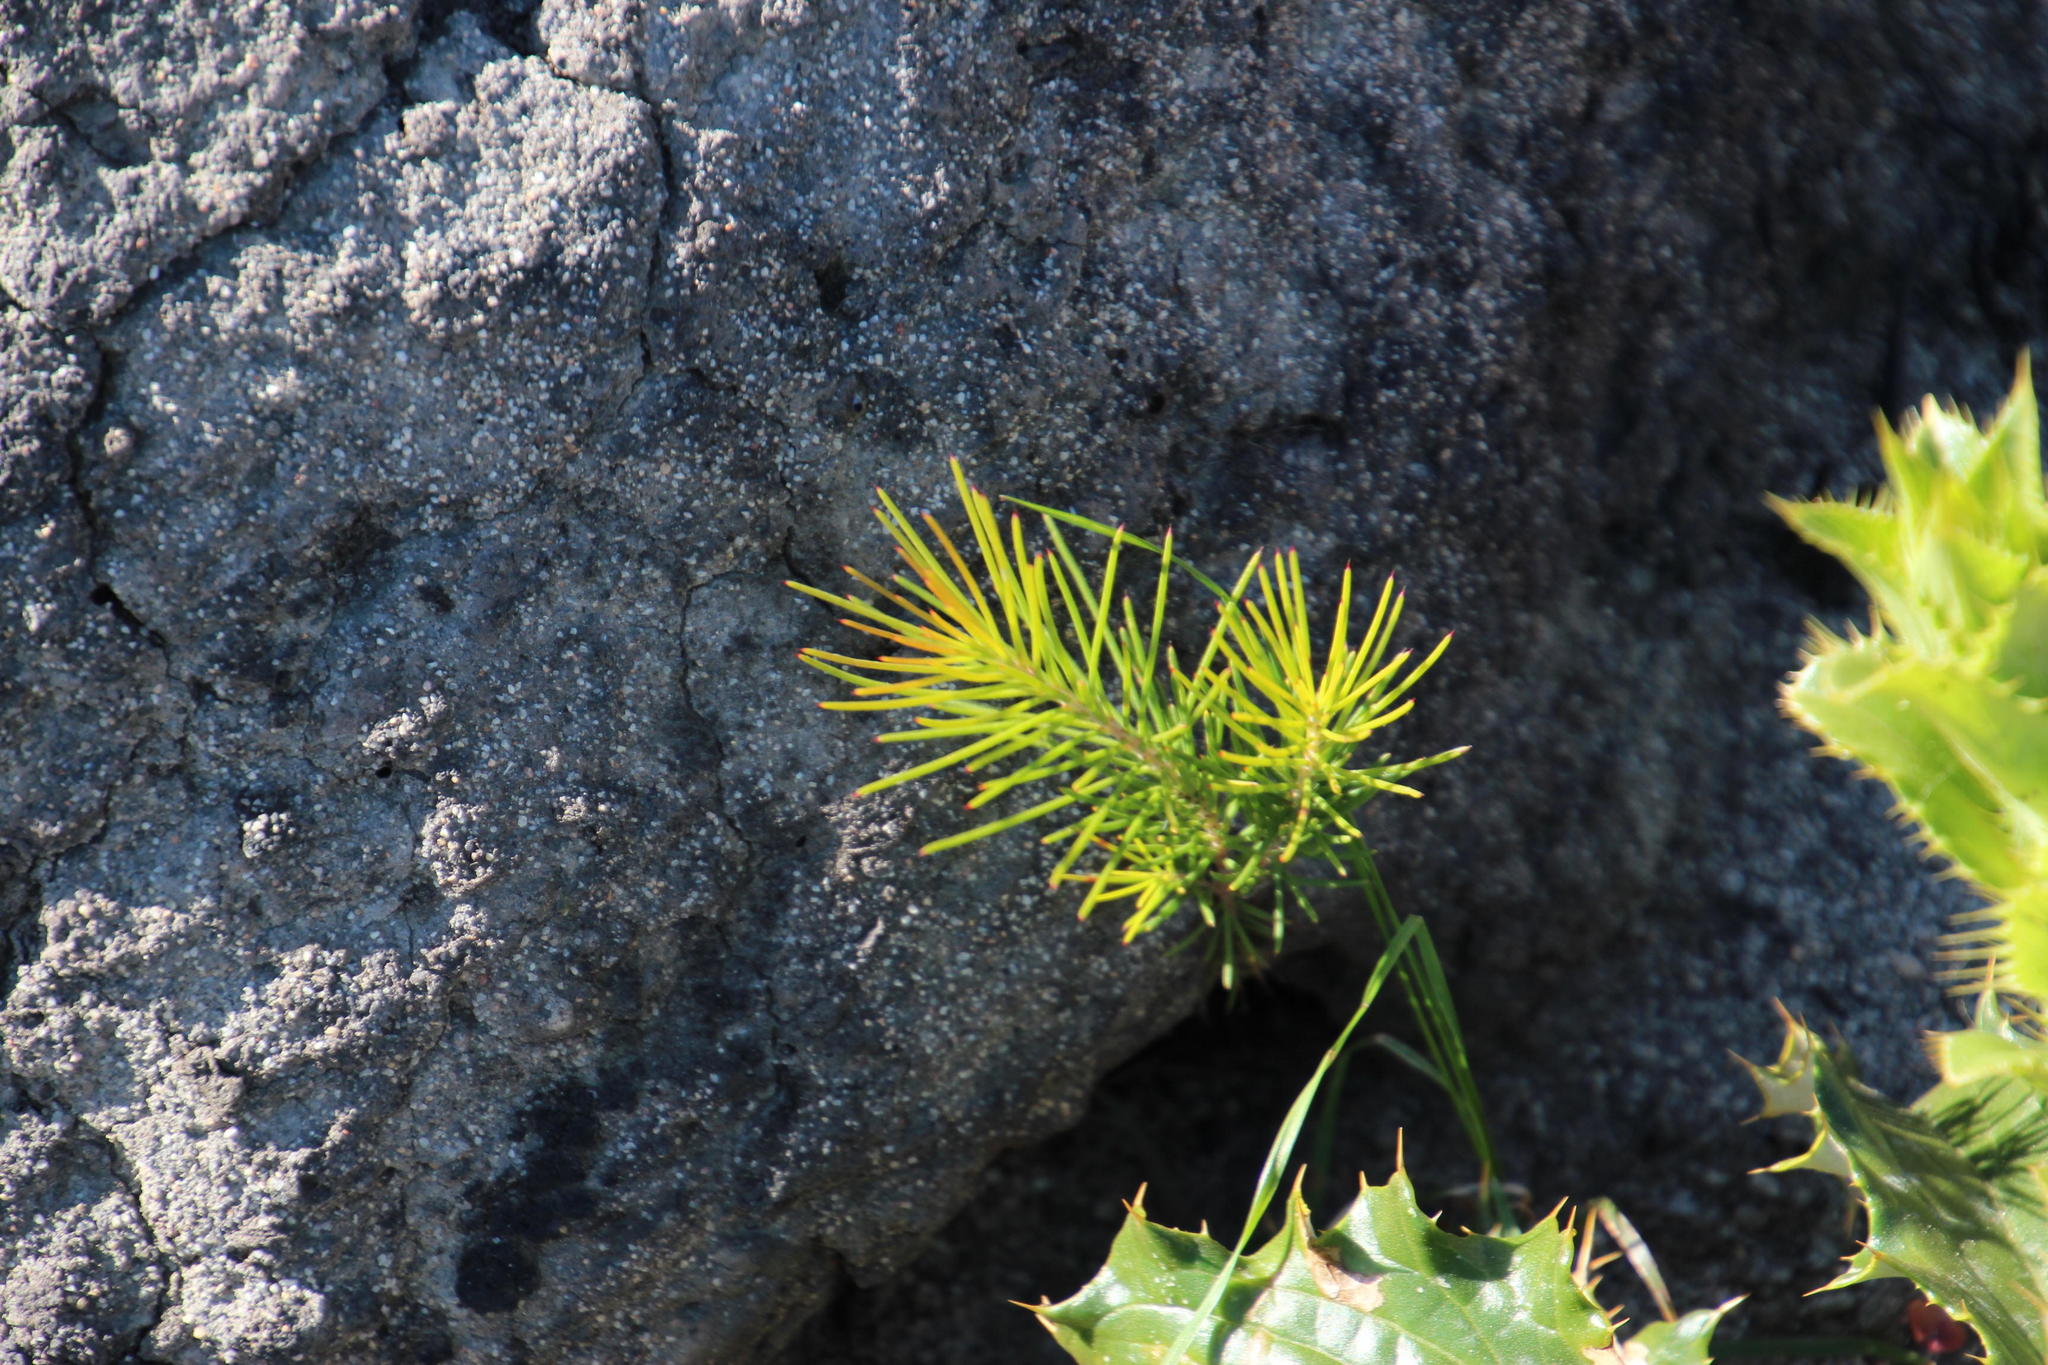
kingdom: Plantae
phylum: Tracheophyta
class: Magnoliopsida
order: Proteales
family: Proteaceae
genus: Hakea
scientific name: Hakea sericea
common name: Needle bush
